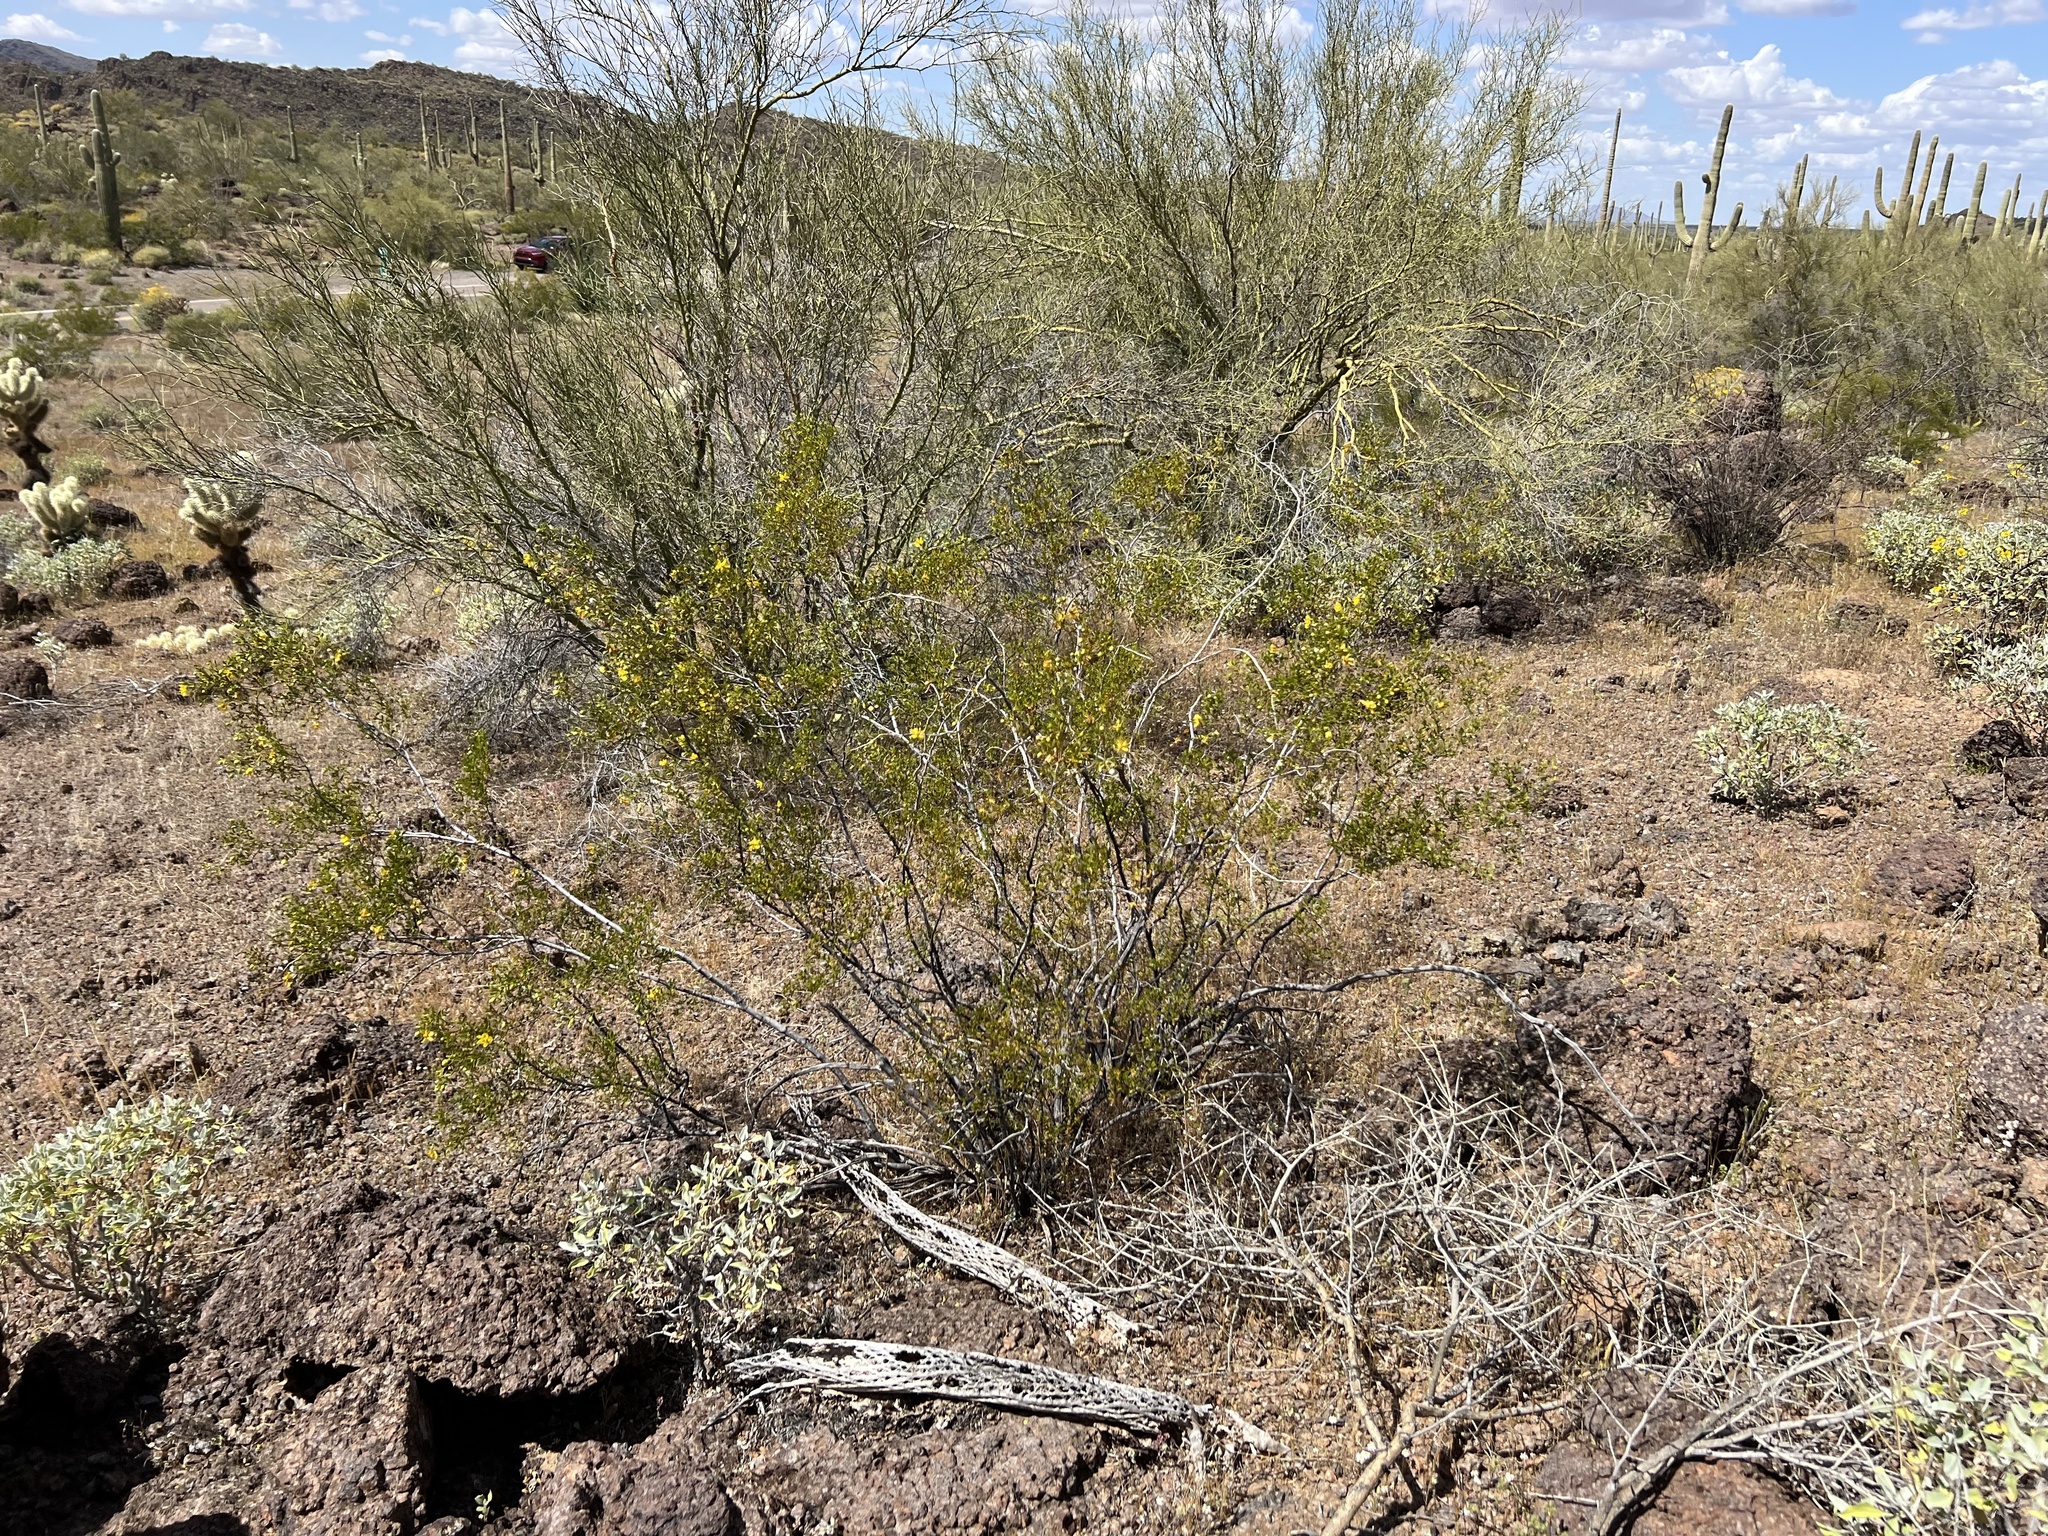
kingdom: Plantae
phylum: Tracheophyta
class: Magnoliopsida
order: Zygophyllales
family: Zygophyllaceae
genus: Larrea
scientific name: Larrea tridentata
